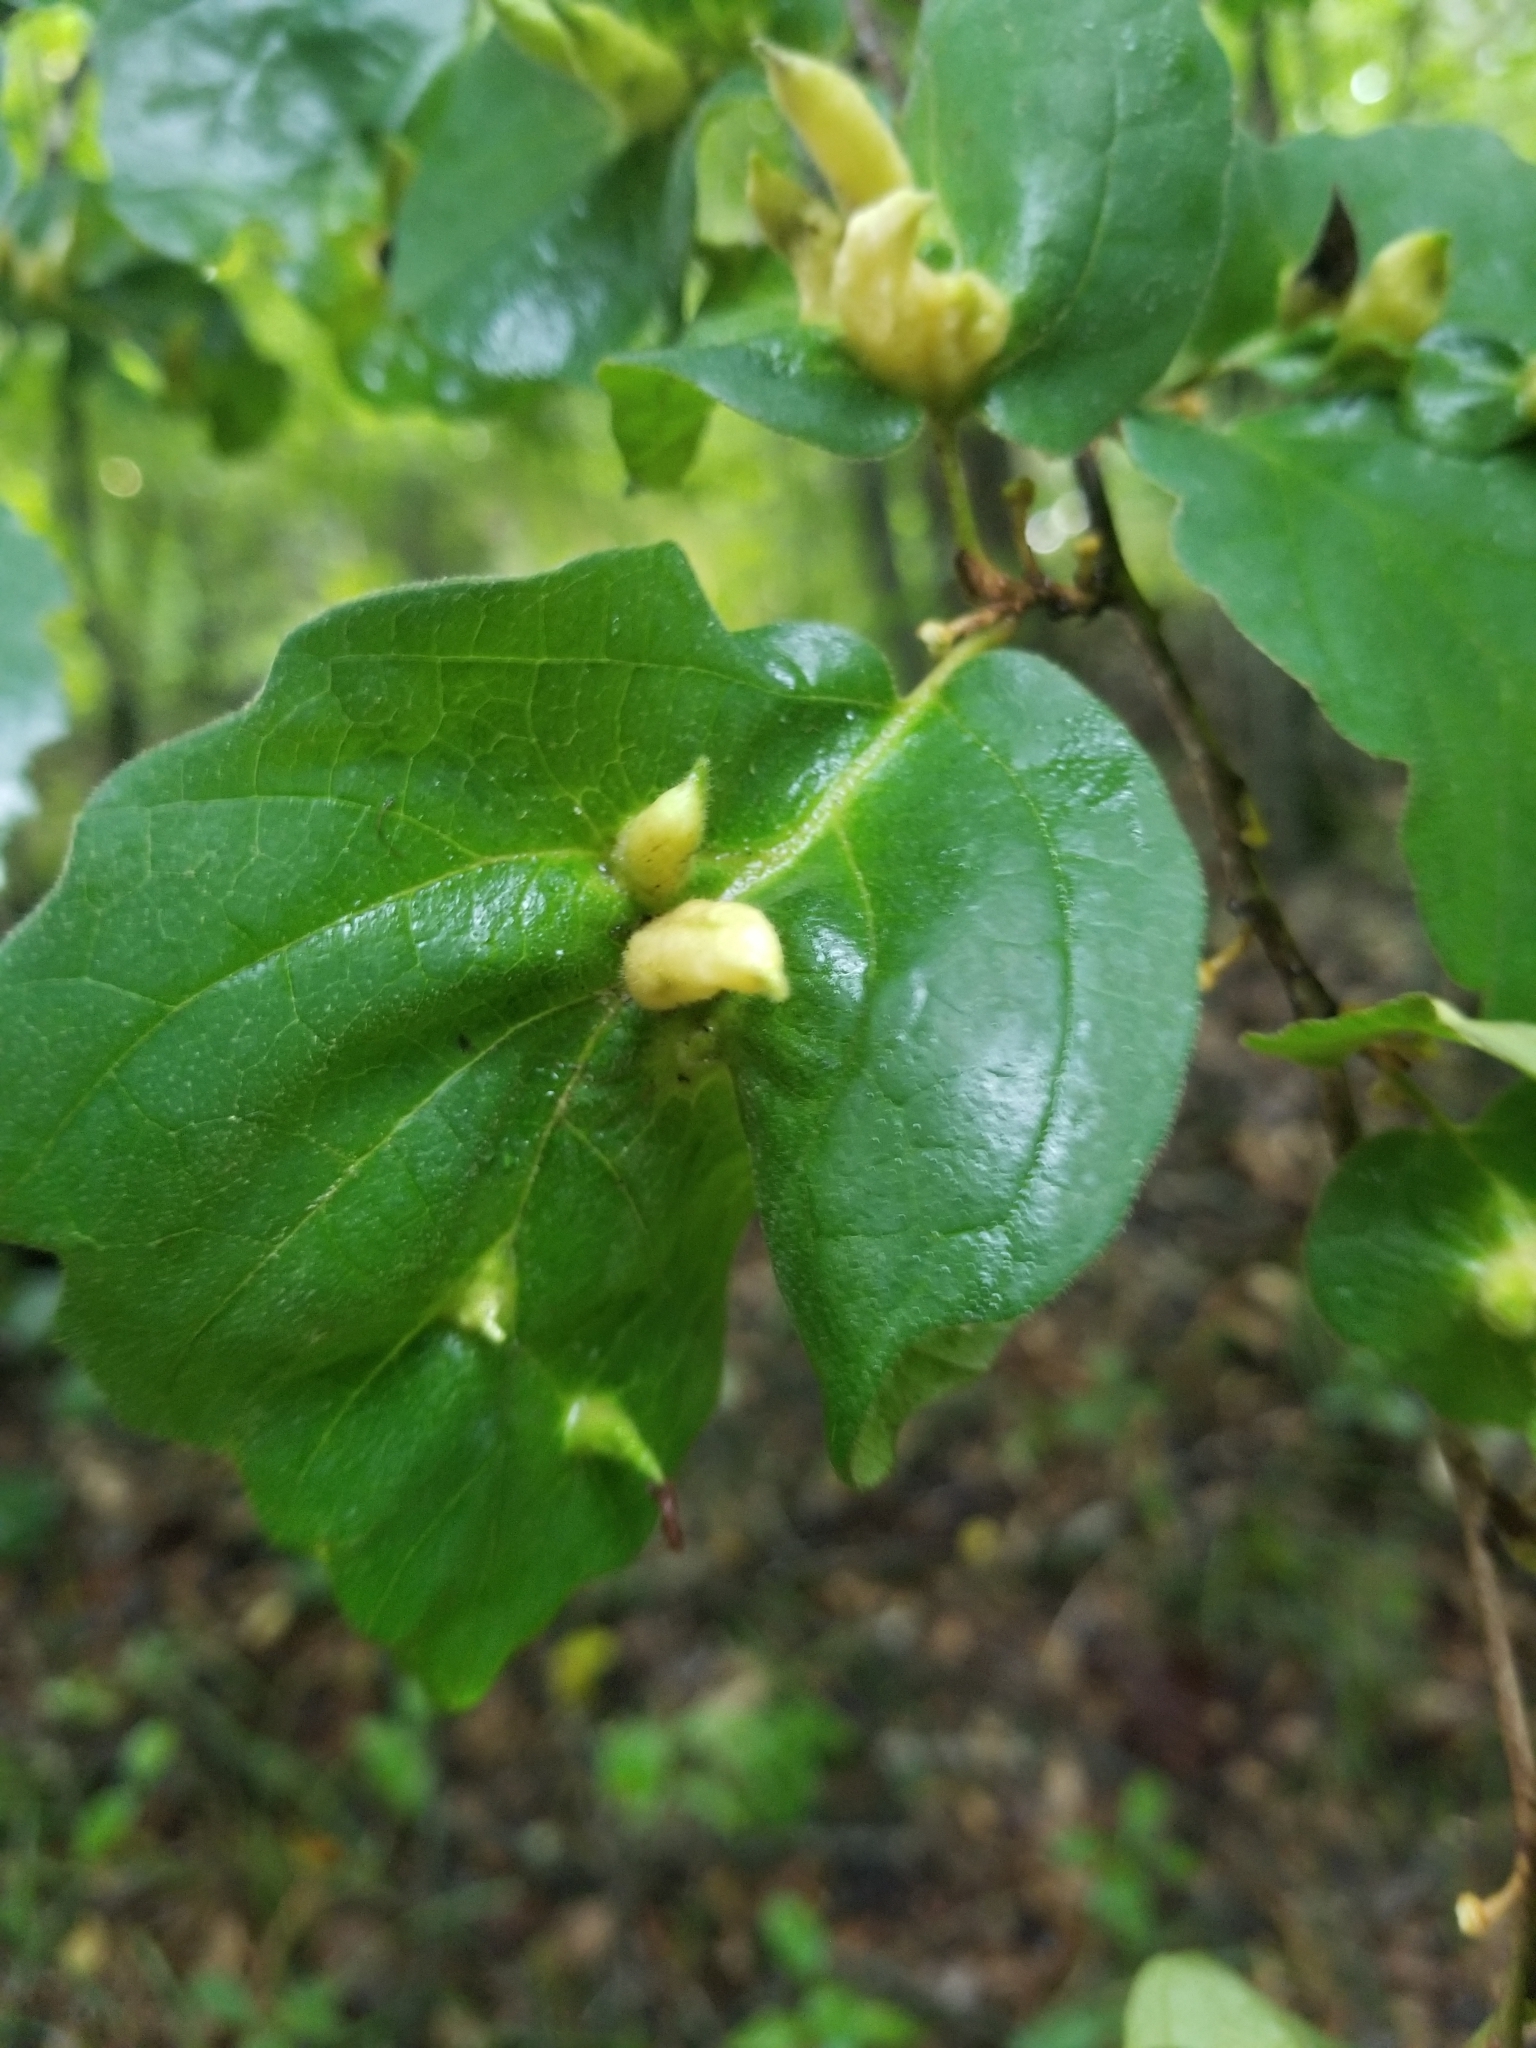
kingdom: Animalia
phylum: Arthropoda
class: Insecta
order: Hemiptera
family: Aphididae
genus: Hormaphis
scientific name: Hormaphis hamamelidis
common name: Witch-hazel cone gall aphid
